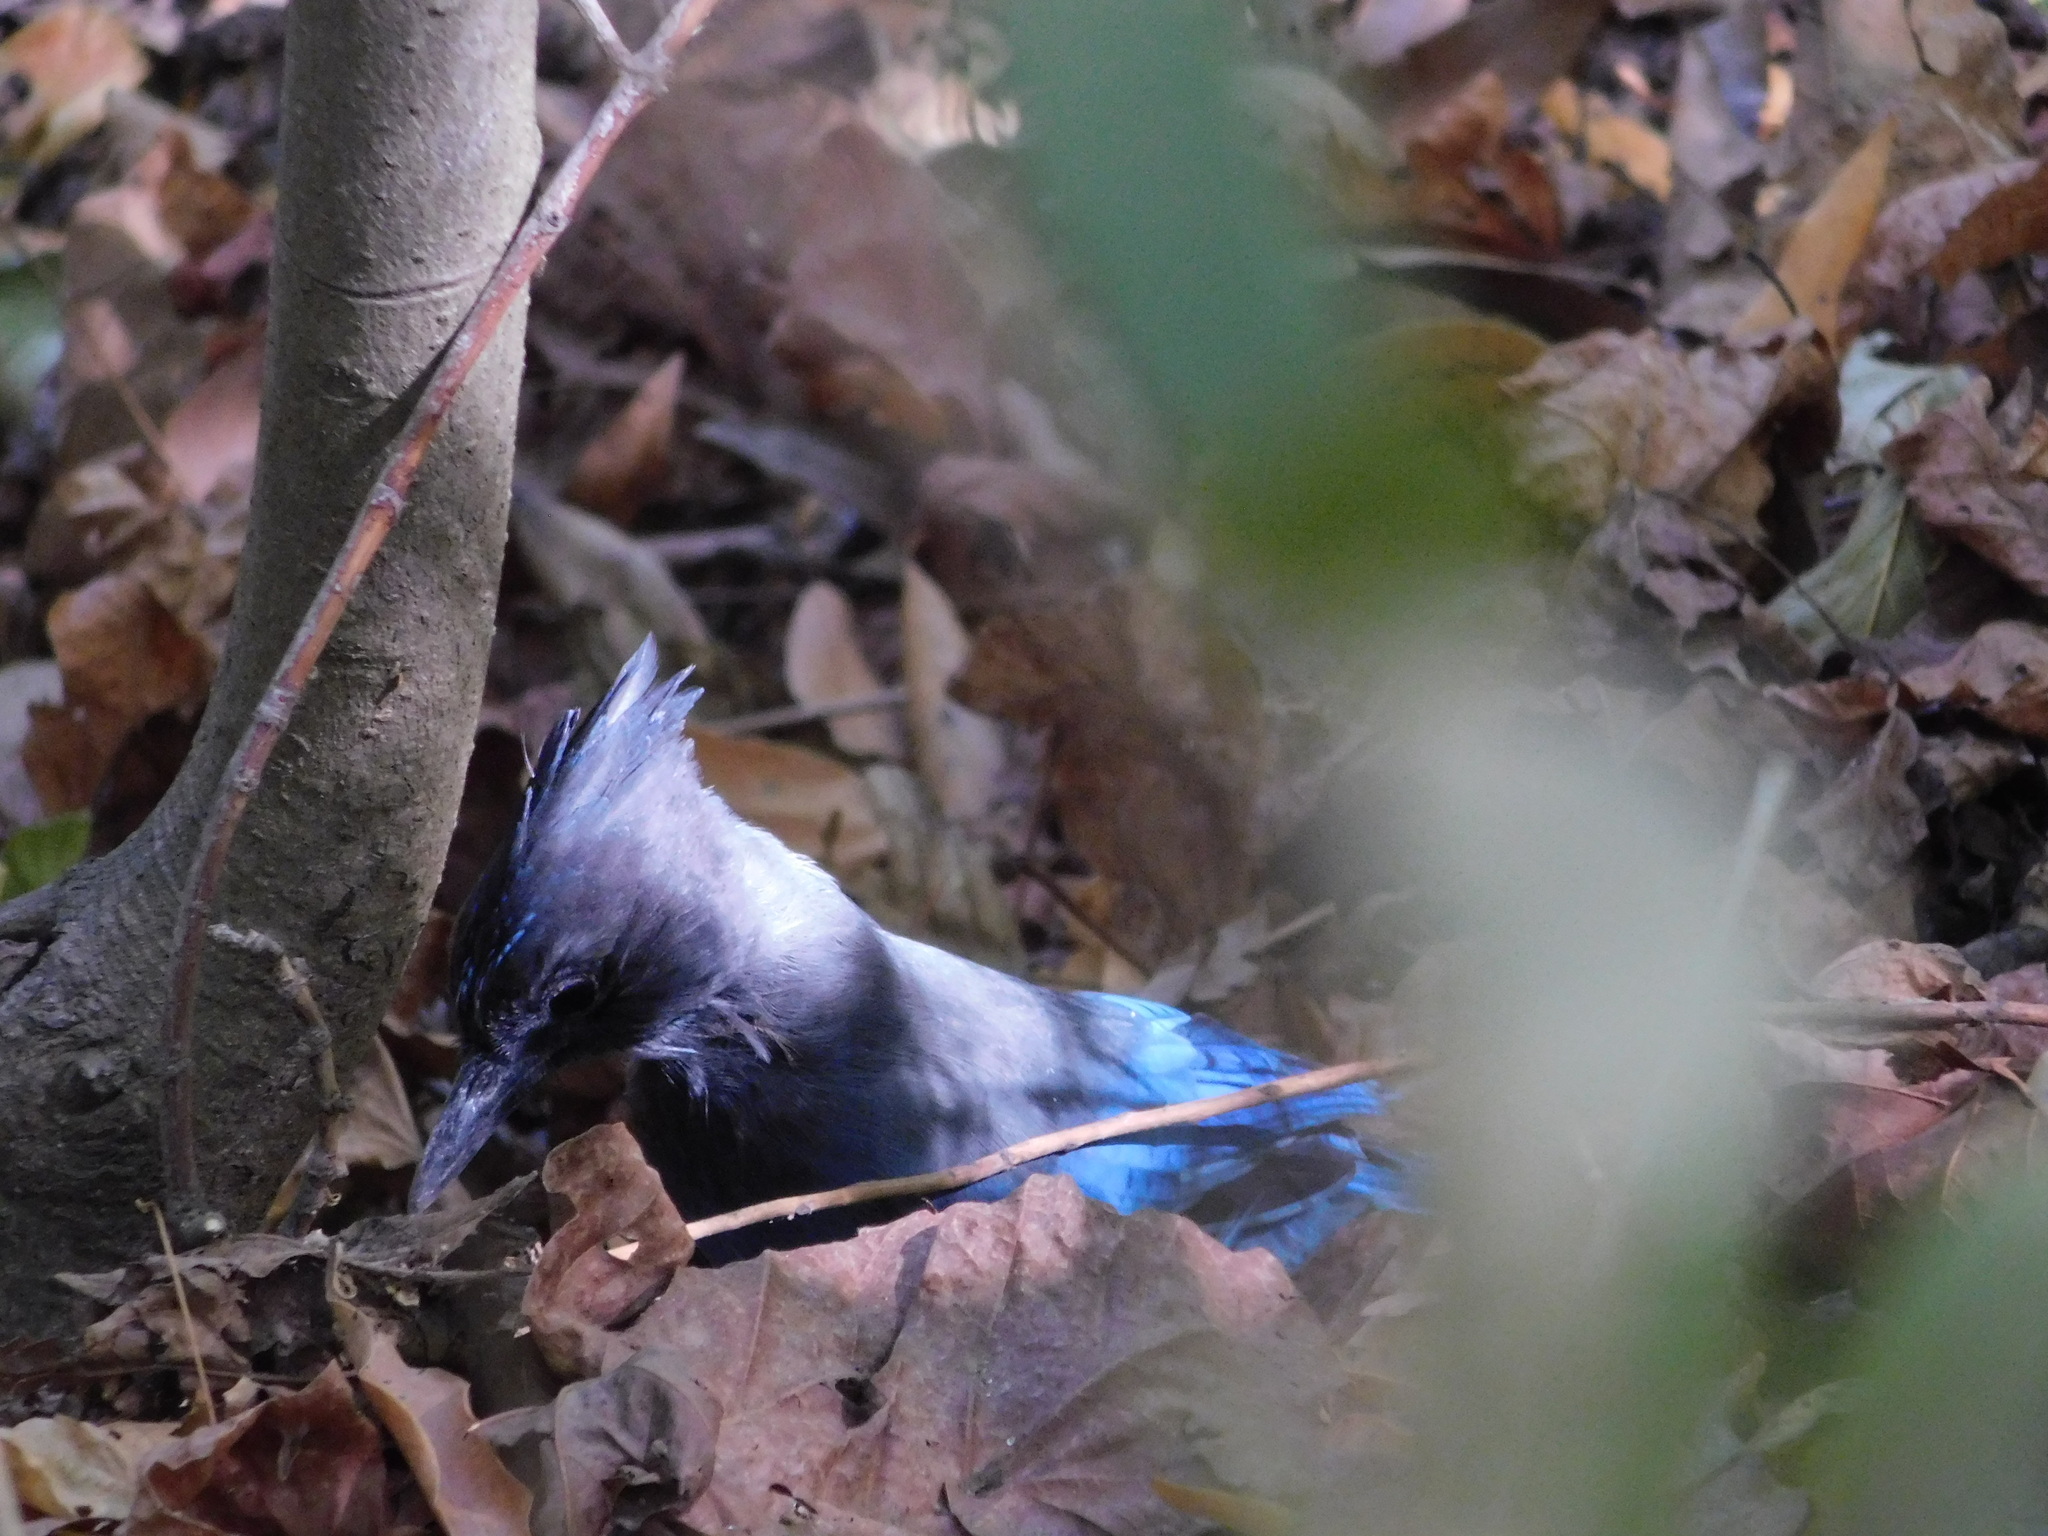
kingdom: Animalia
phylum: Chordata
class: Aves
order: Passeriformes
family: Corvidae
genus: Cyanocitta
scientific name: Cyanocitta stelleri
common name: Steller's jay
